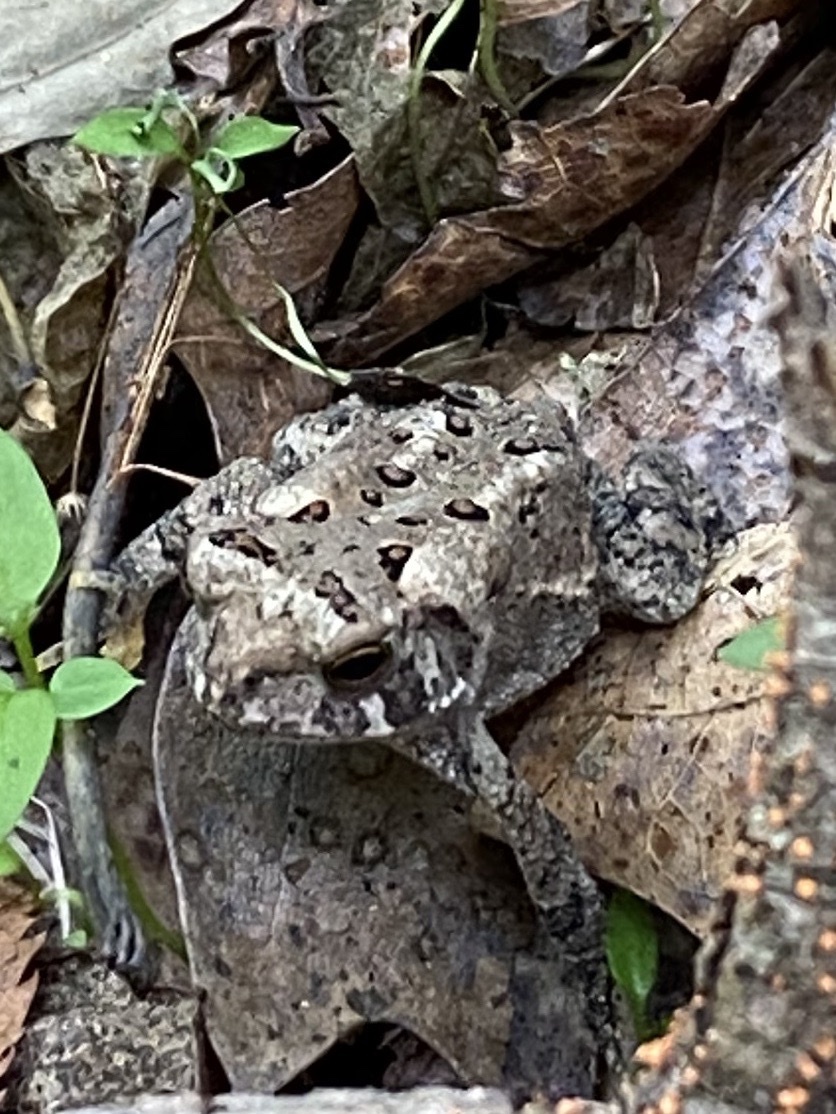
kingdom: Animalia
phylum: Chordata
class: Amphibia
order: Anura
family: Bufonidae
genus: Anaxyrus
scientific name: Anaxyrus americanus
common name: American toad
